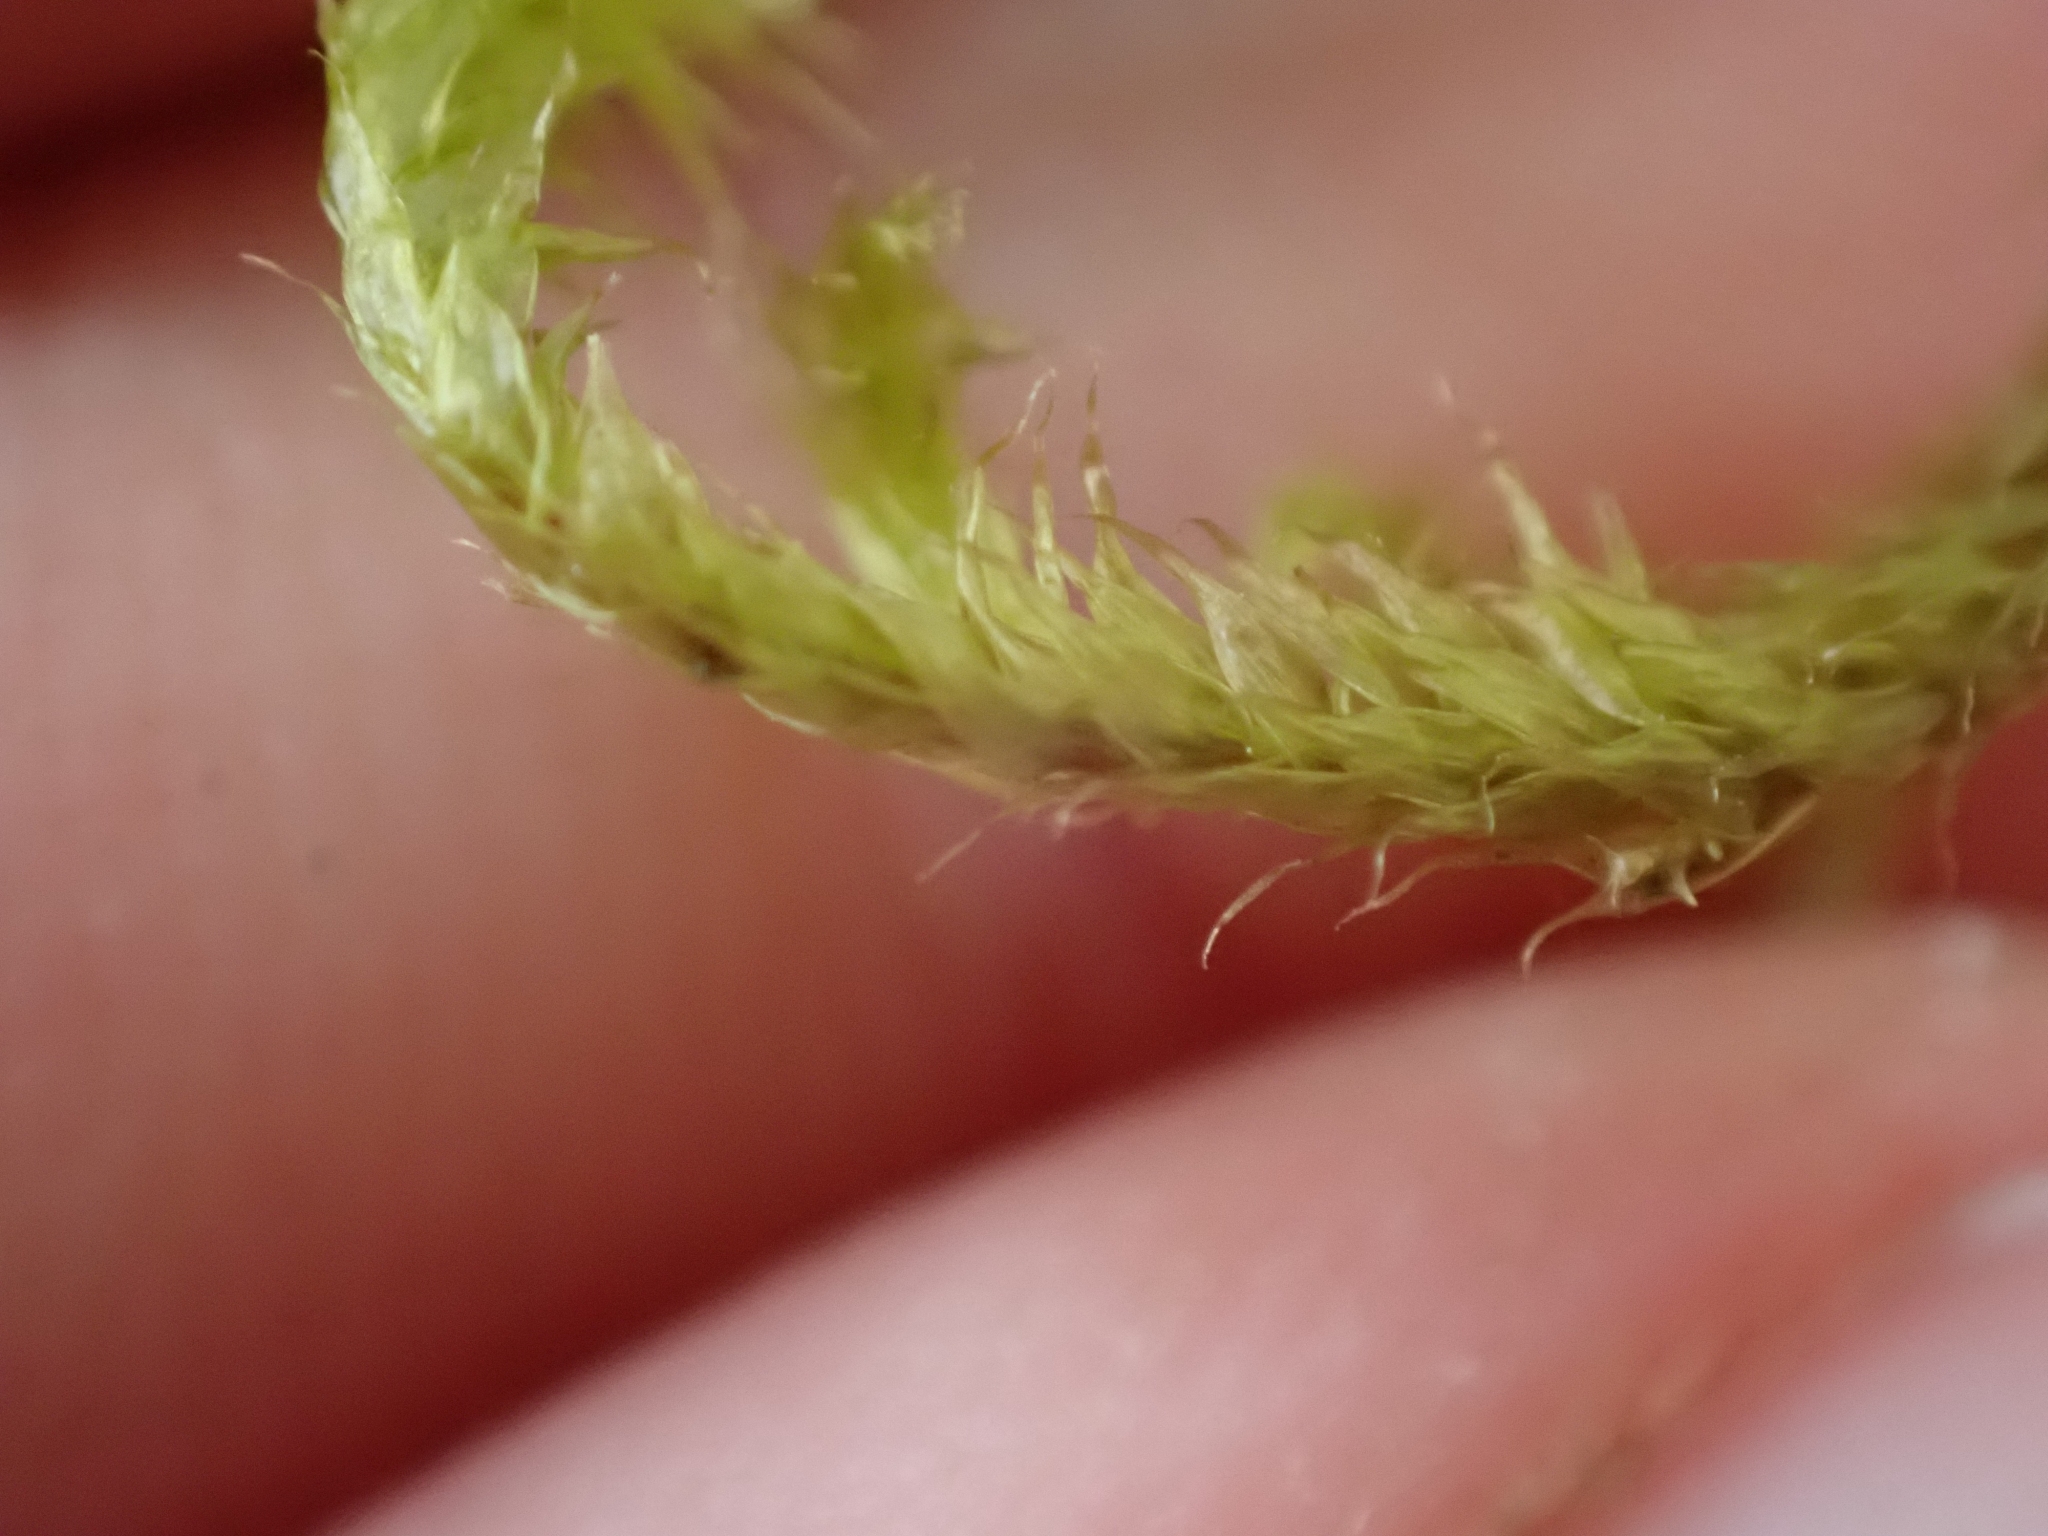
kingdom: Plantae
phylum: Bryophyta
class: Bryopsida
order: Hypnales
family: Antitrichiaceae
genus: Antitrichia
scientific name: Antitrichia curtipendula
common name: Pendulous wing-moss
